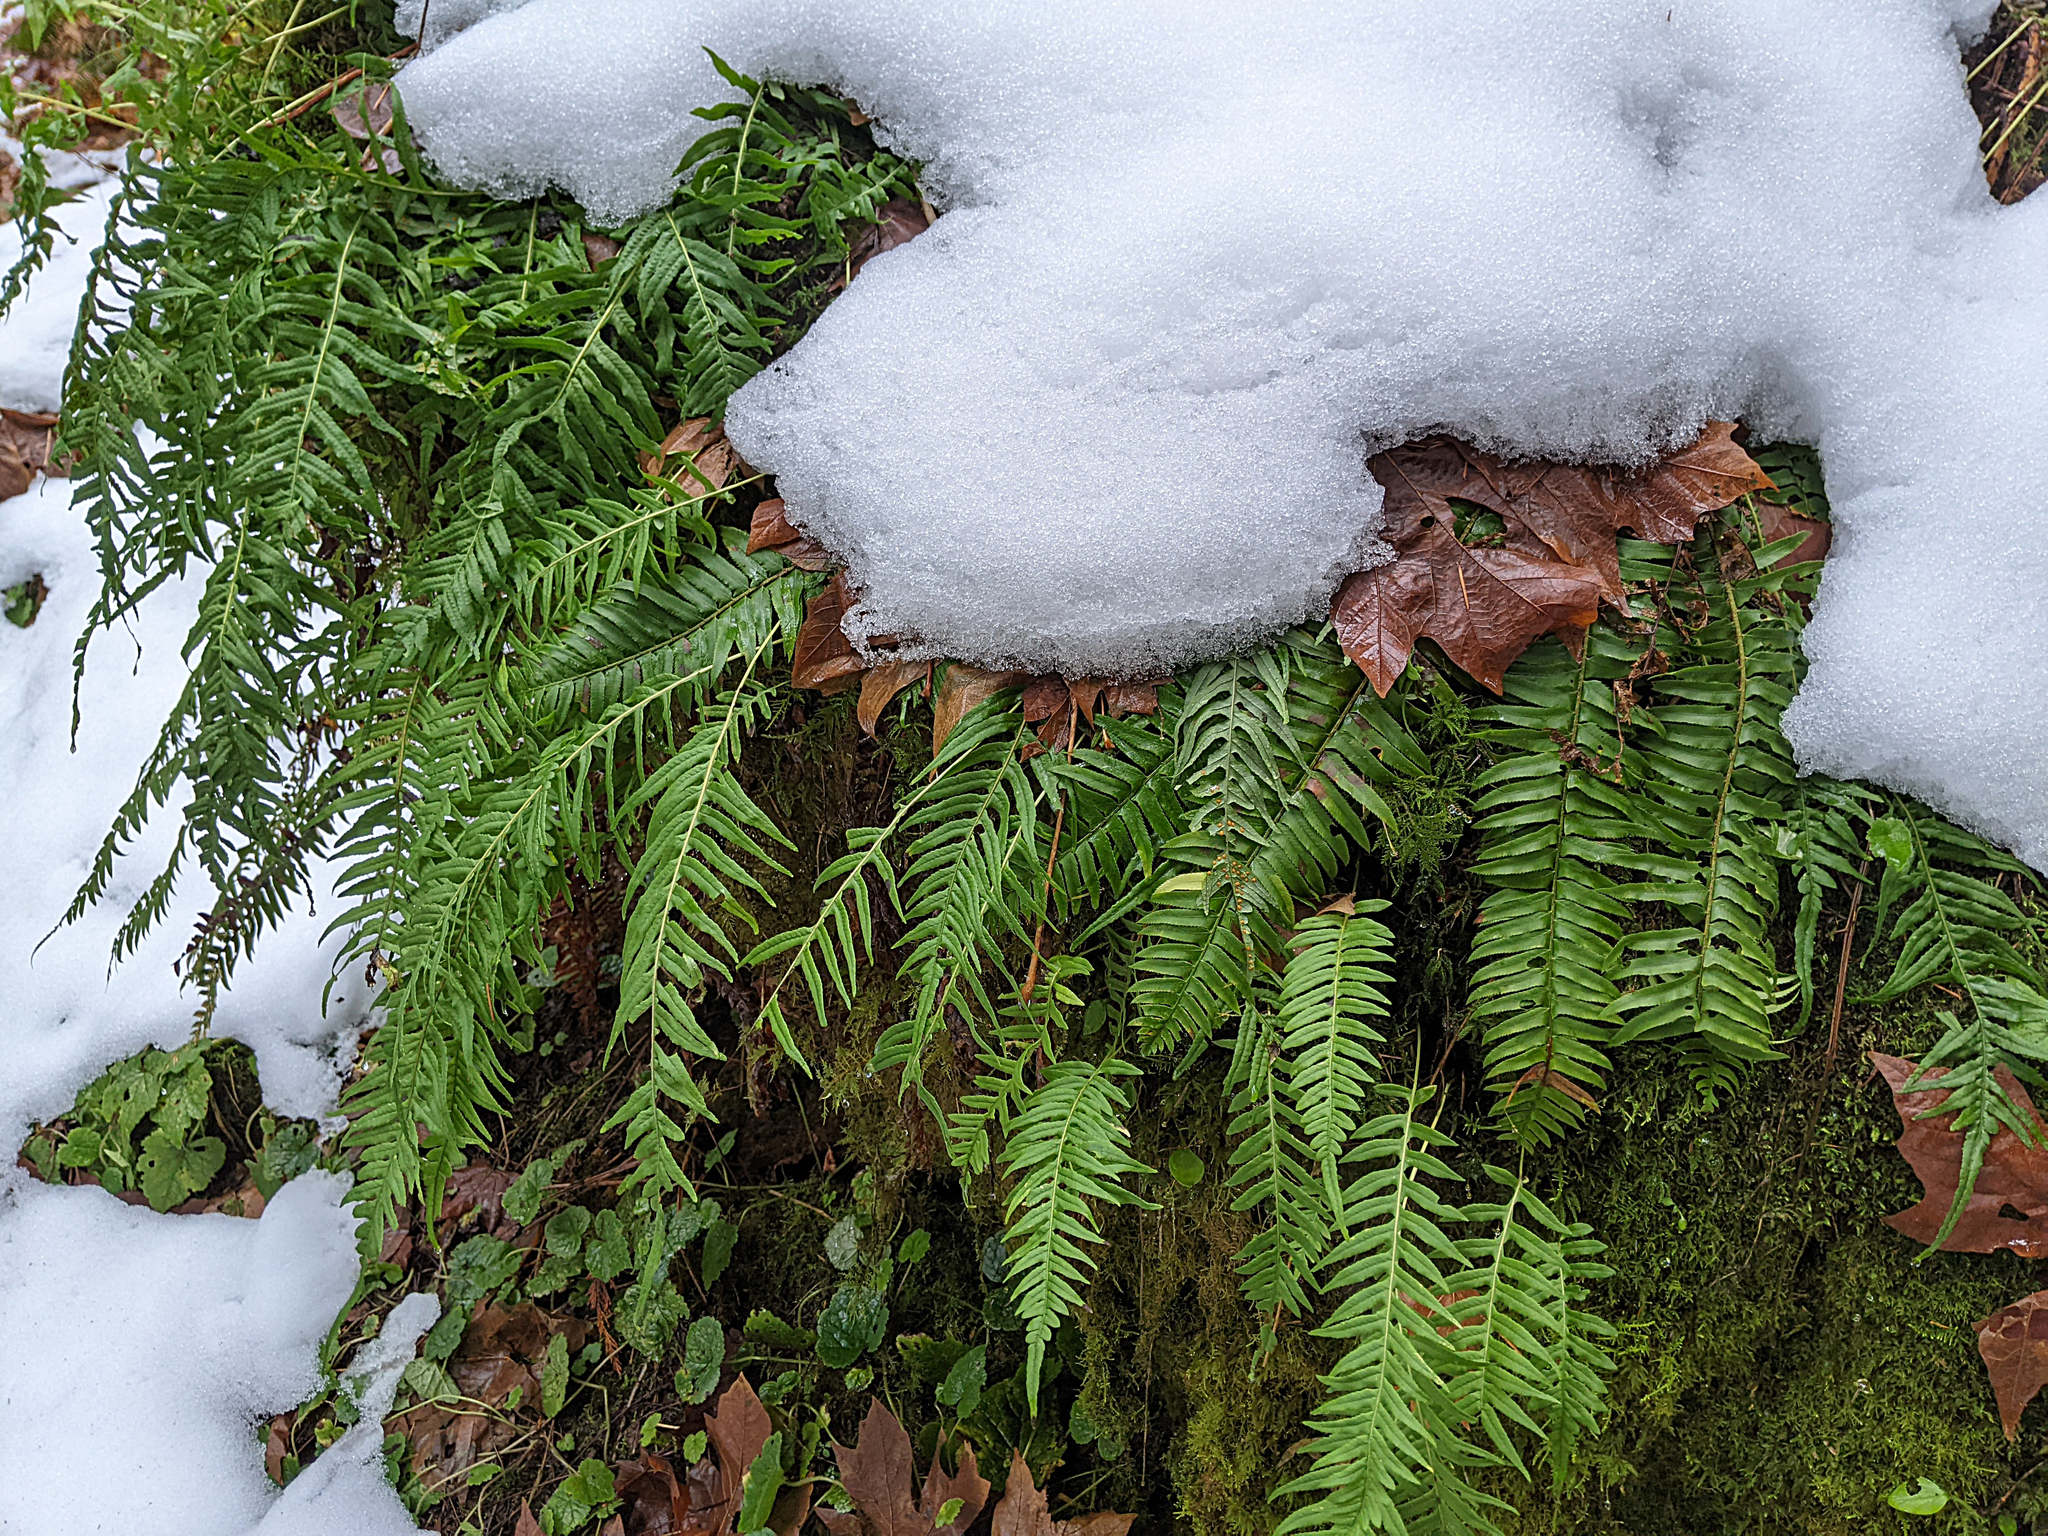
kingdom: Plantae
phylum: Tracheophyta
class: Polypodiopsida
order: Polypodiales
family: Polypodiaceae
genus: Polypodium
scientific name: Polypodium glycyrrhiza
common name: Licorice fern
